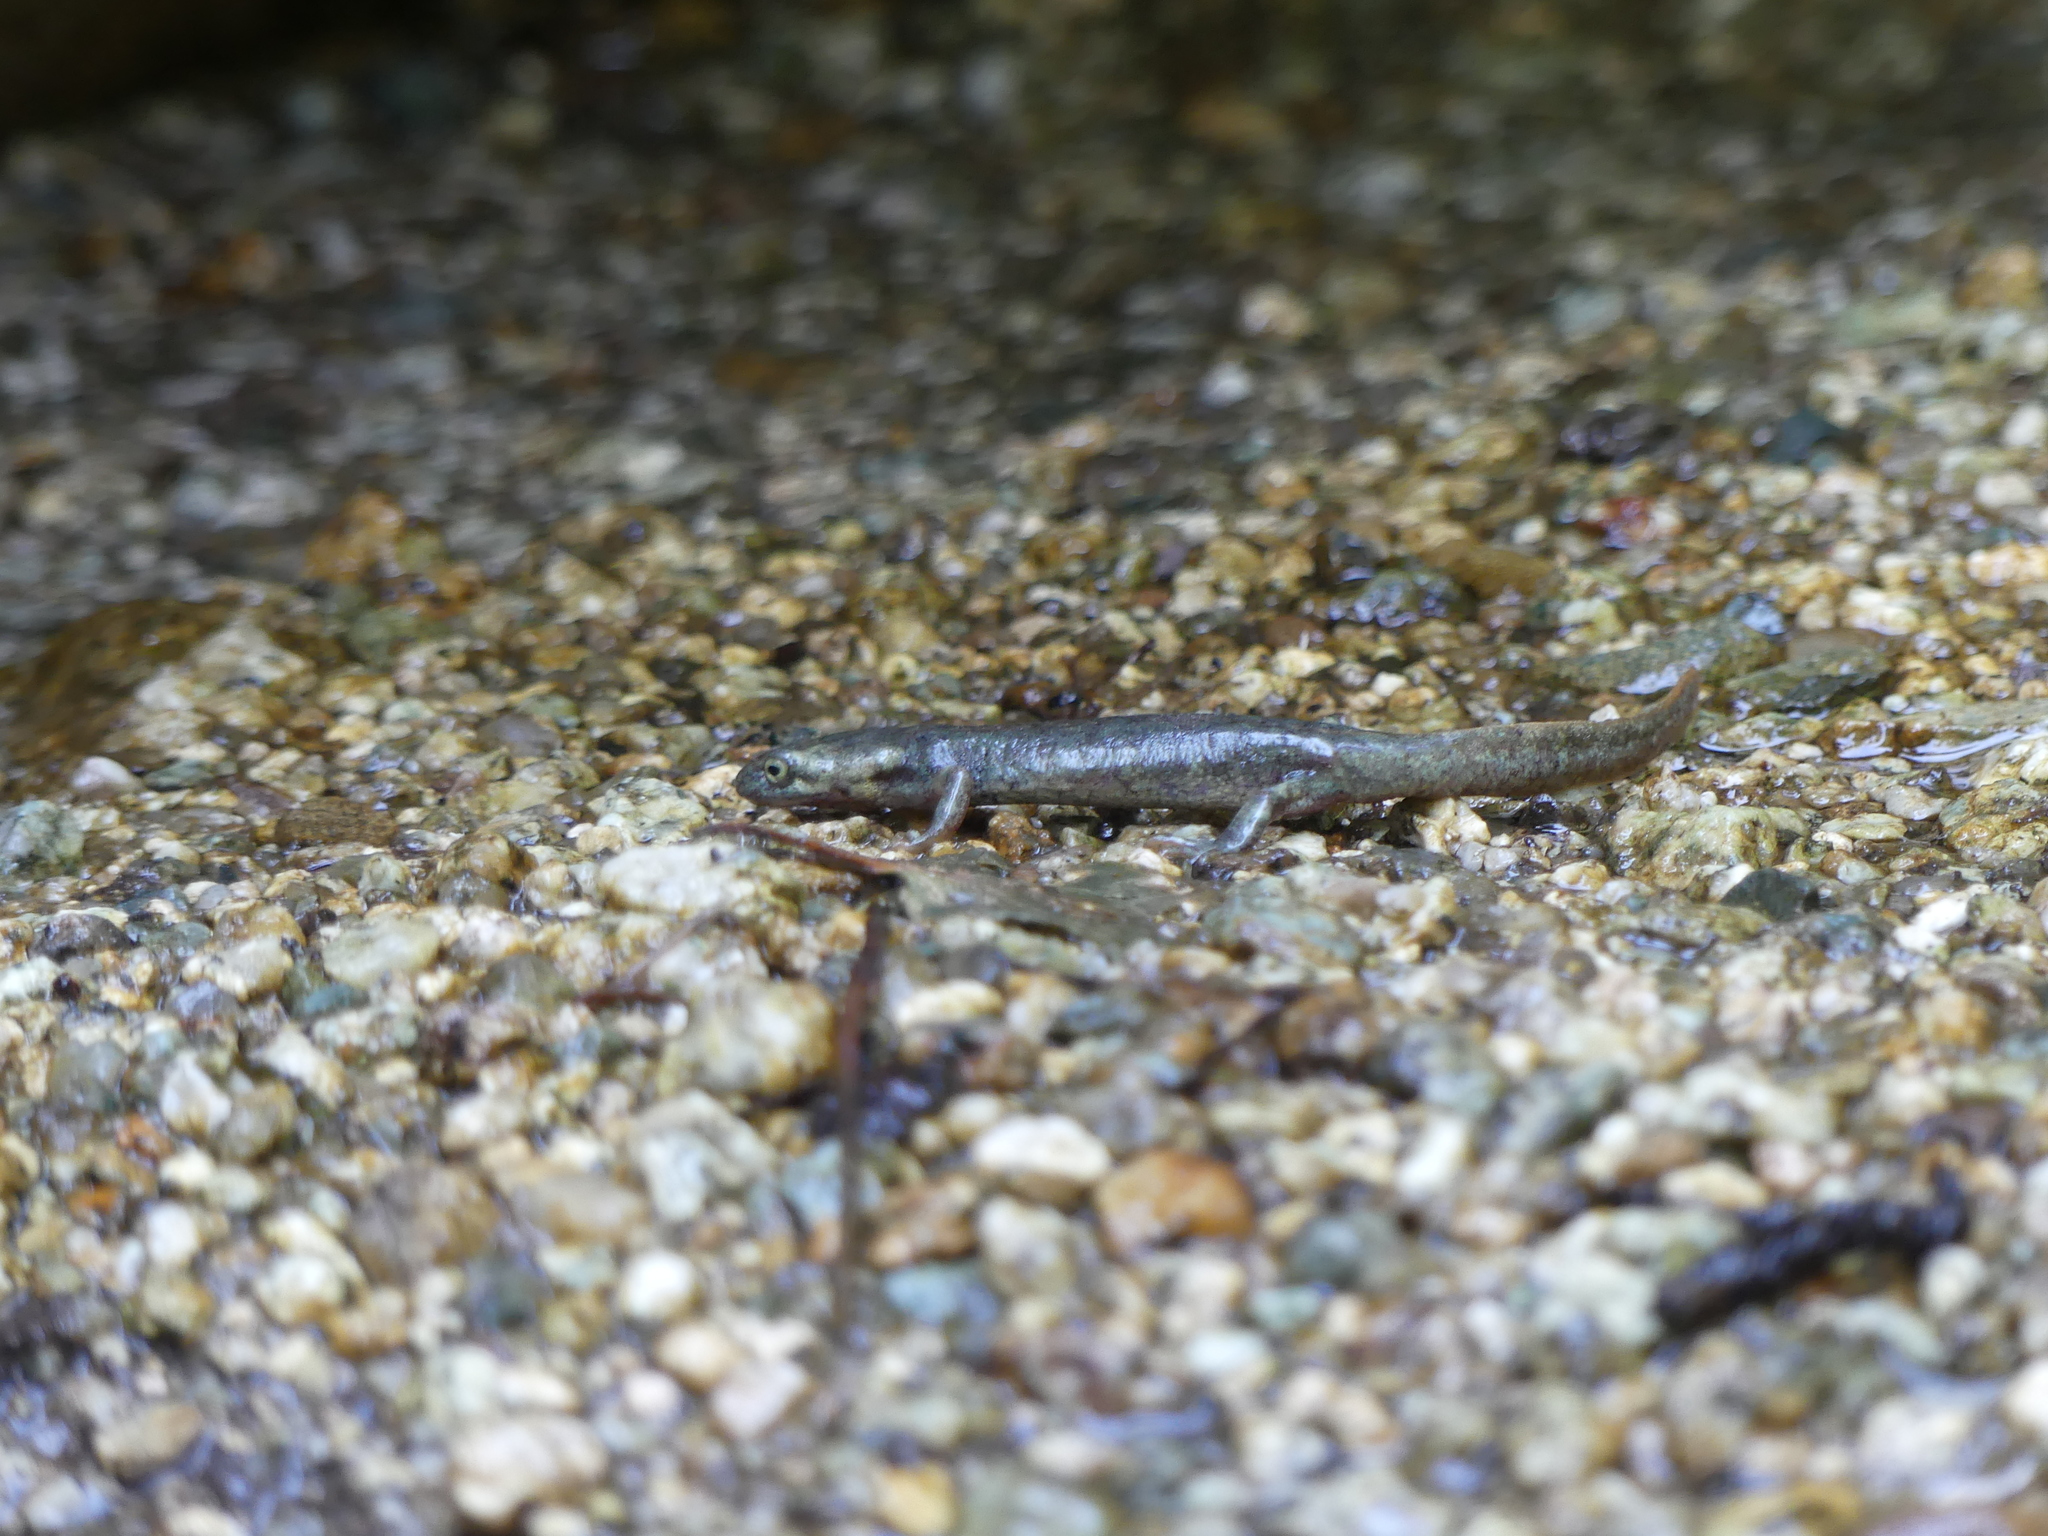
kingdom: Animalia
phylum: Chordata
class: Amphibia
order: Caudata
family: Salamandridae
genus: Euproctus
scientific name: Euproctus montanus
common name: Corsican brook salamander
